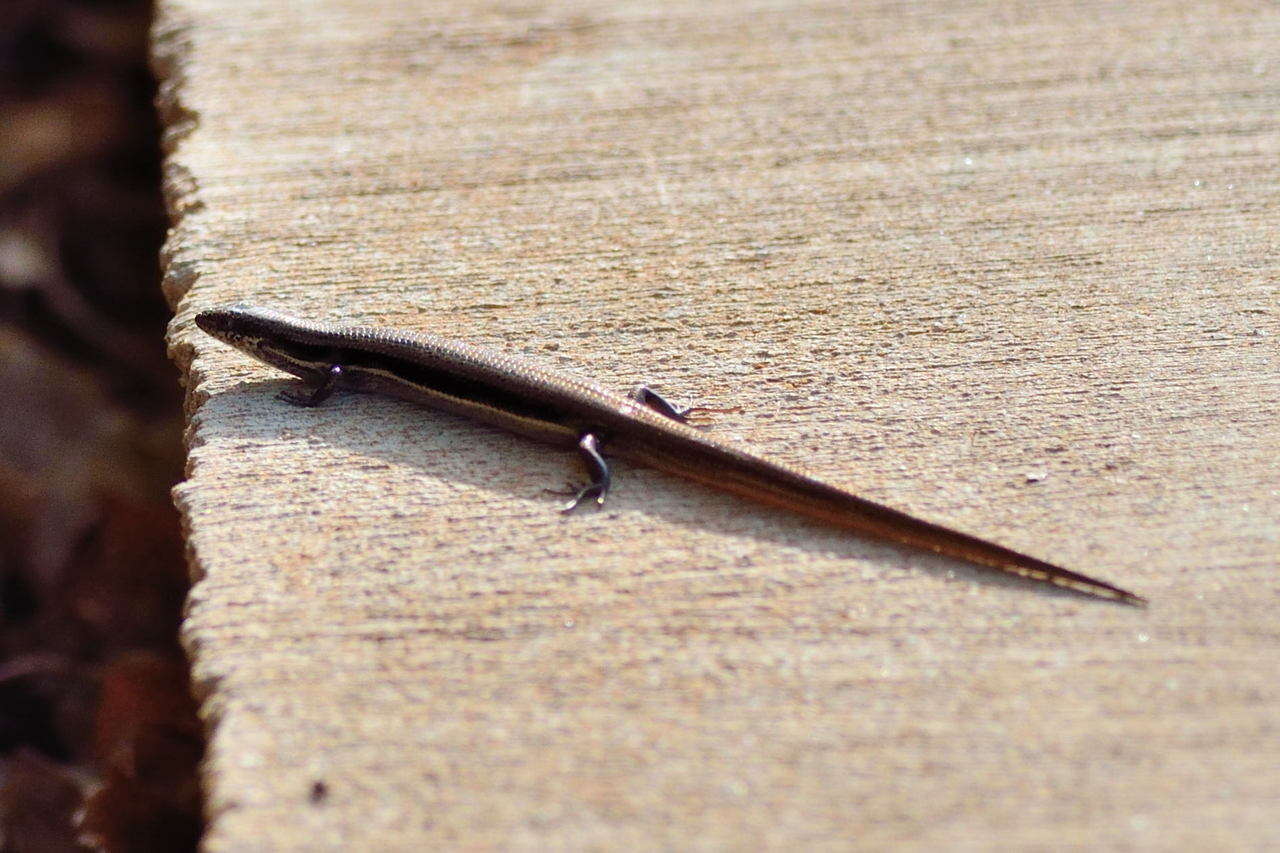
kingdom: Animalia
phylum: Chordata
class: Squamata
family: Scincidae
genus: Morethia
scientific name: Morethia boulengeri
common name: South-eastern morethia skink
